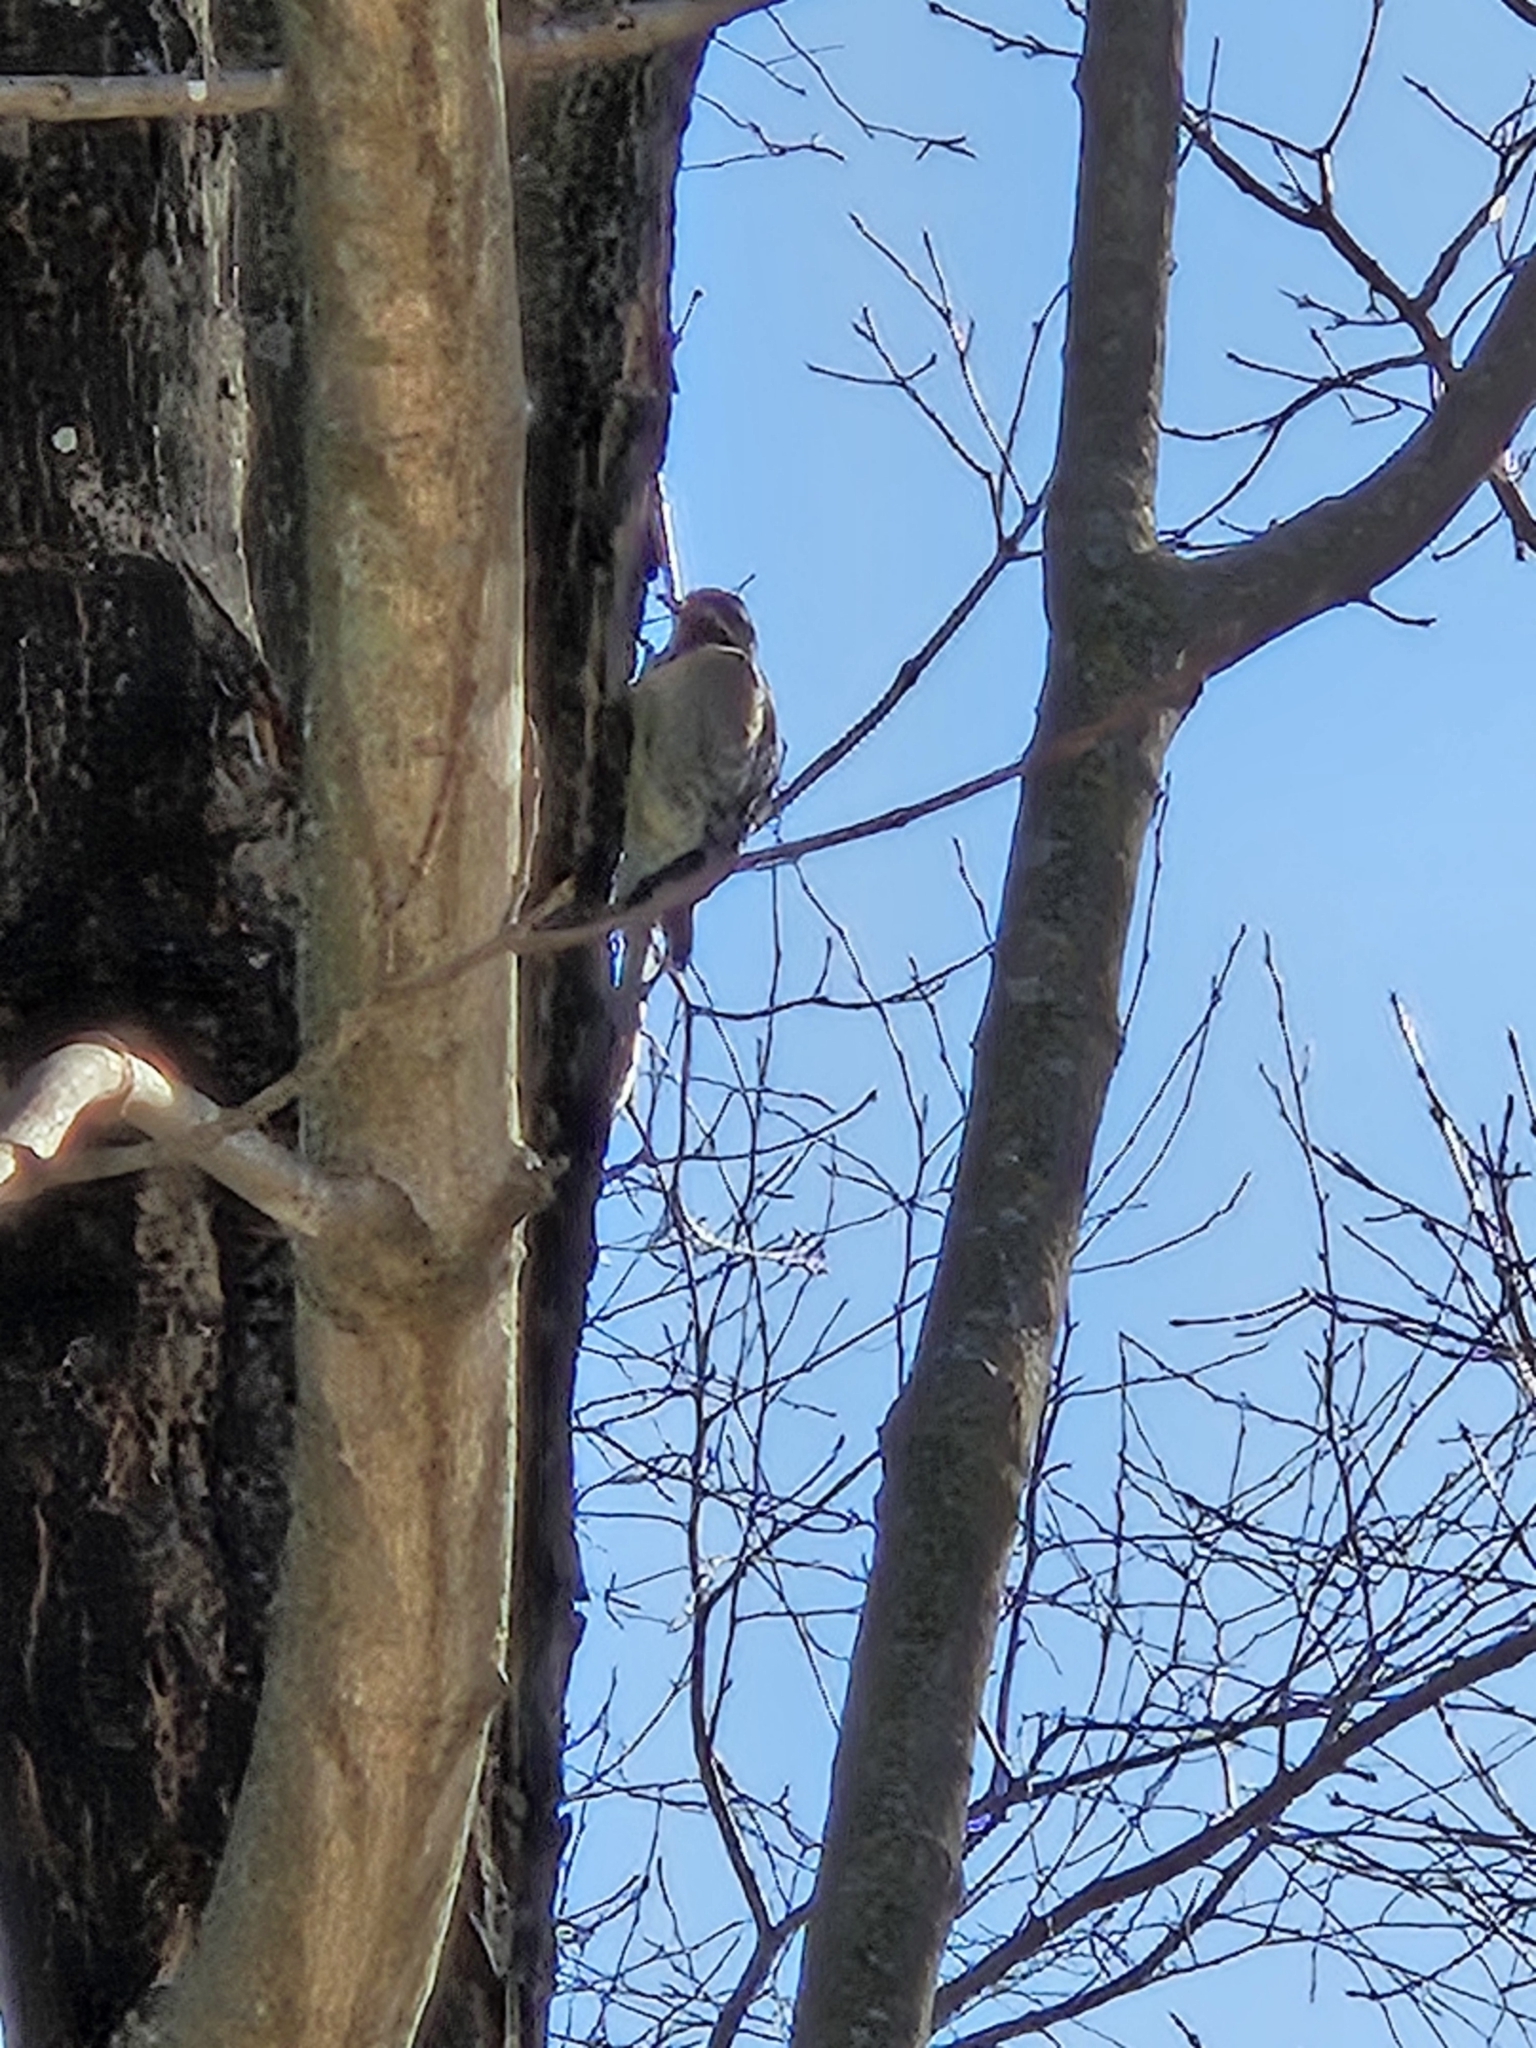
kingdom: Animalia
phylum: Chordata
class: Aves
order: Piciformes
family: Picidae
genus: Sphyrapicus
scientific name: Sphyrapicus varius
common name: Yellow-bellied sapsucker
